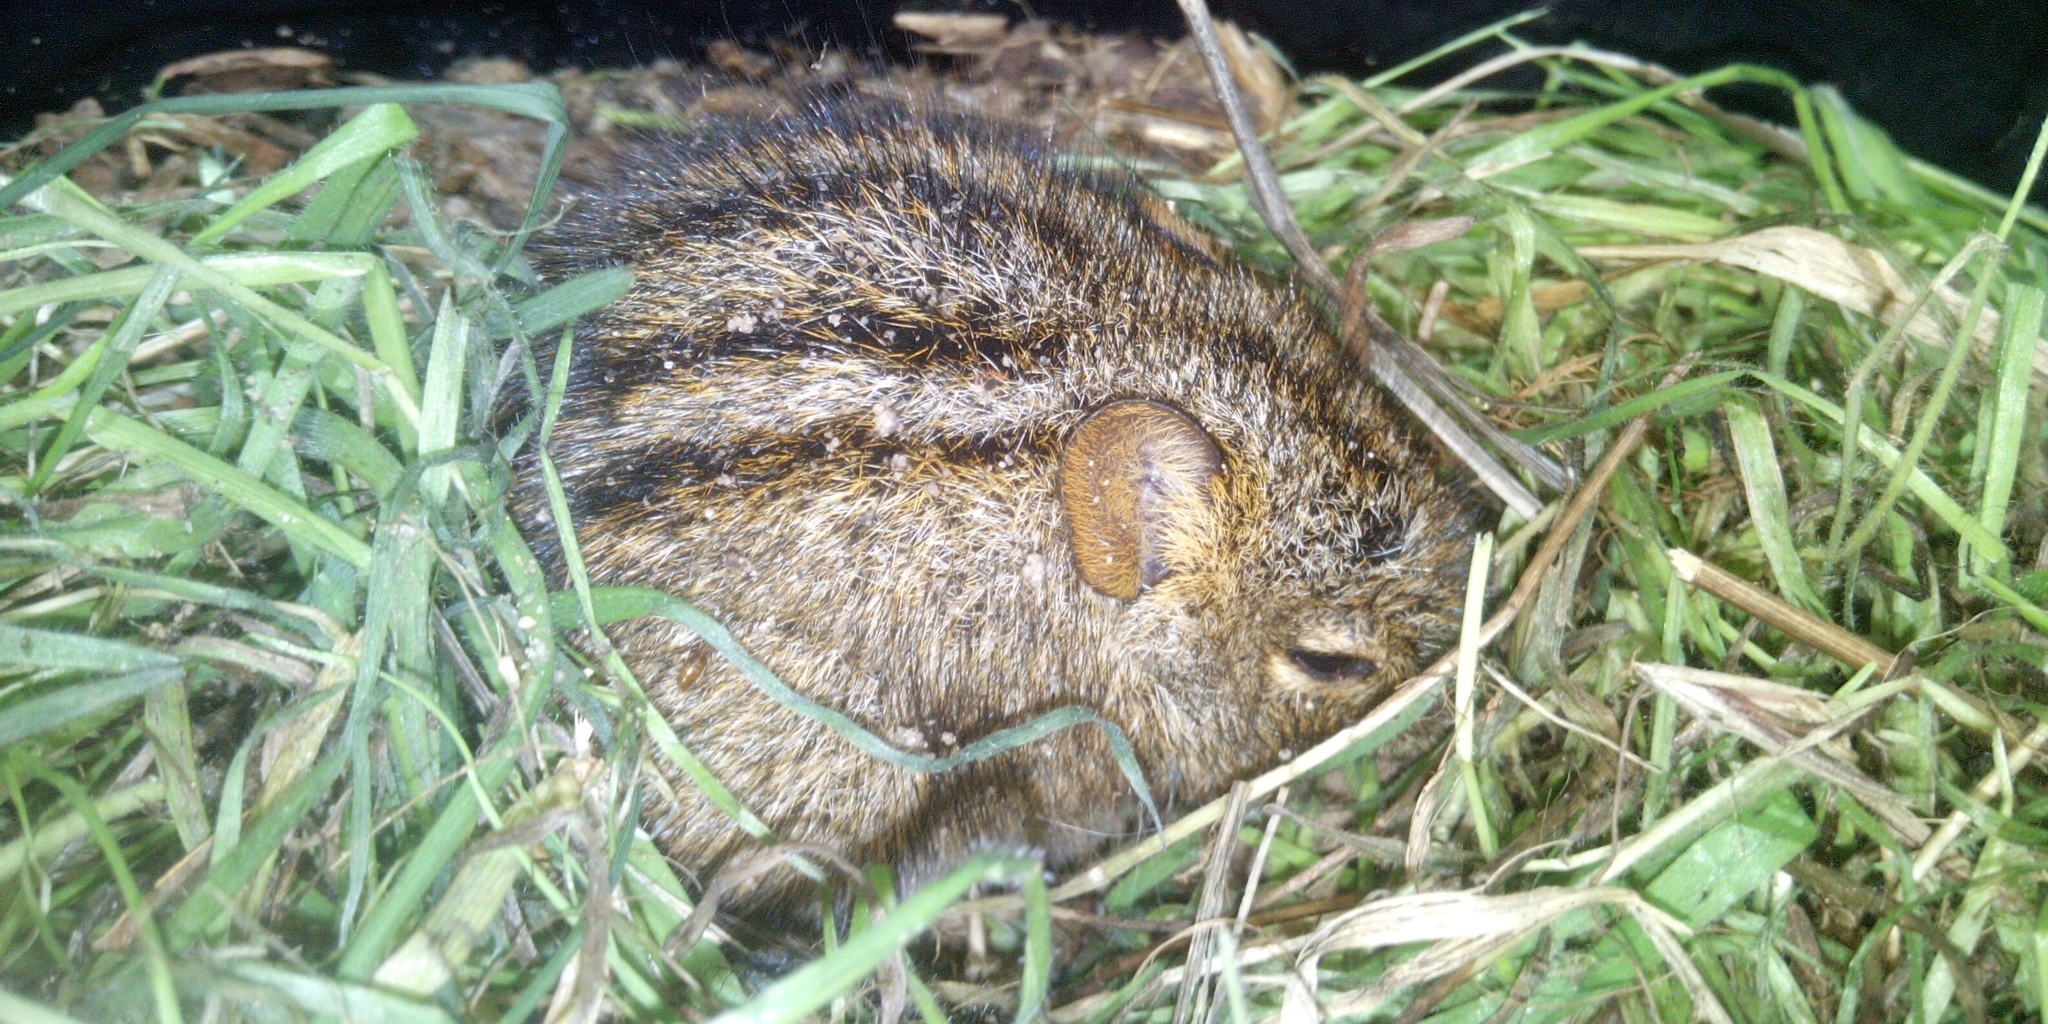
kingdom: Animalia
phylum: Chordata
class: Mammalia
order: Rodentia
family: Muridae
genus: Rhabdomys
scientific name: Rhabdomys pumilio
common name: Xeric four-striped grass rat
